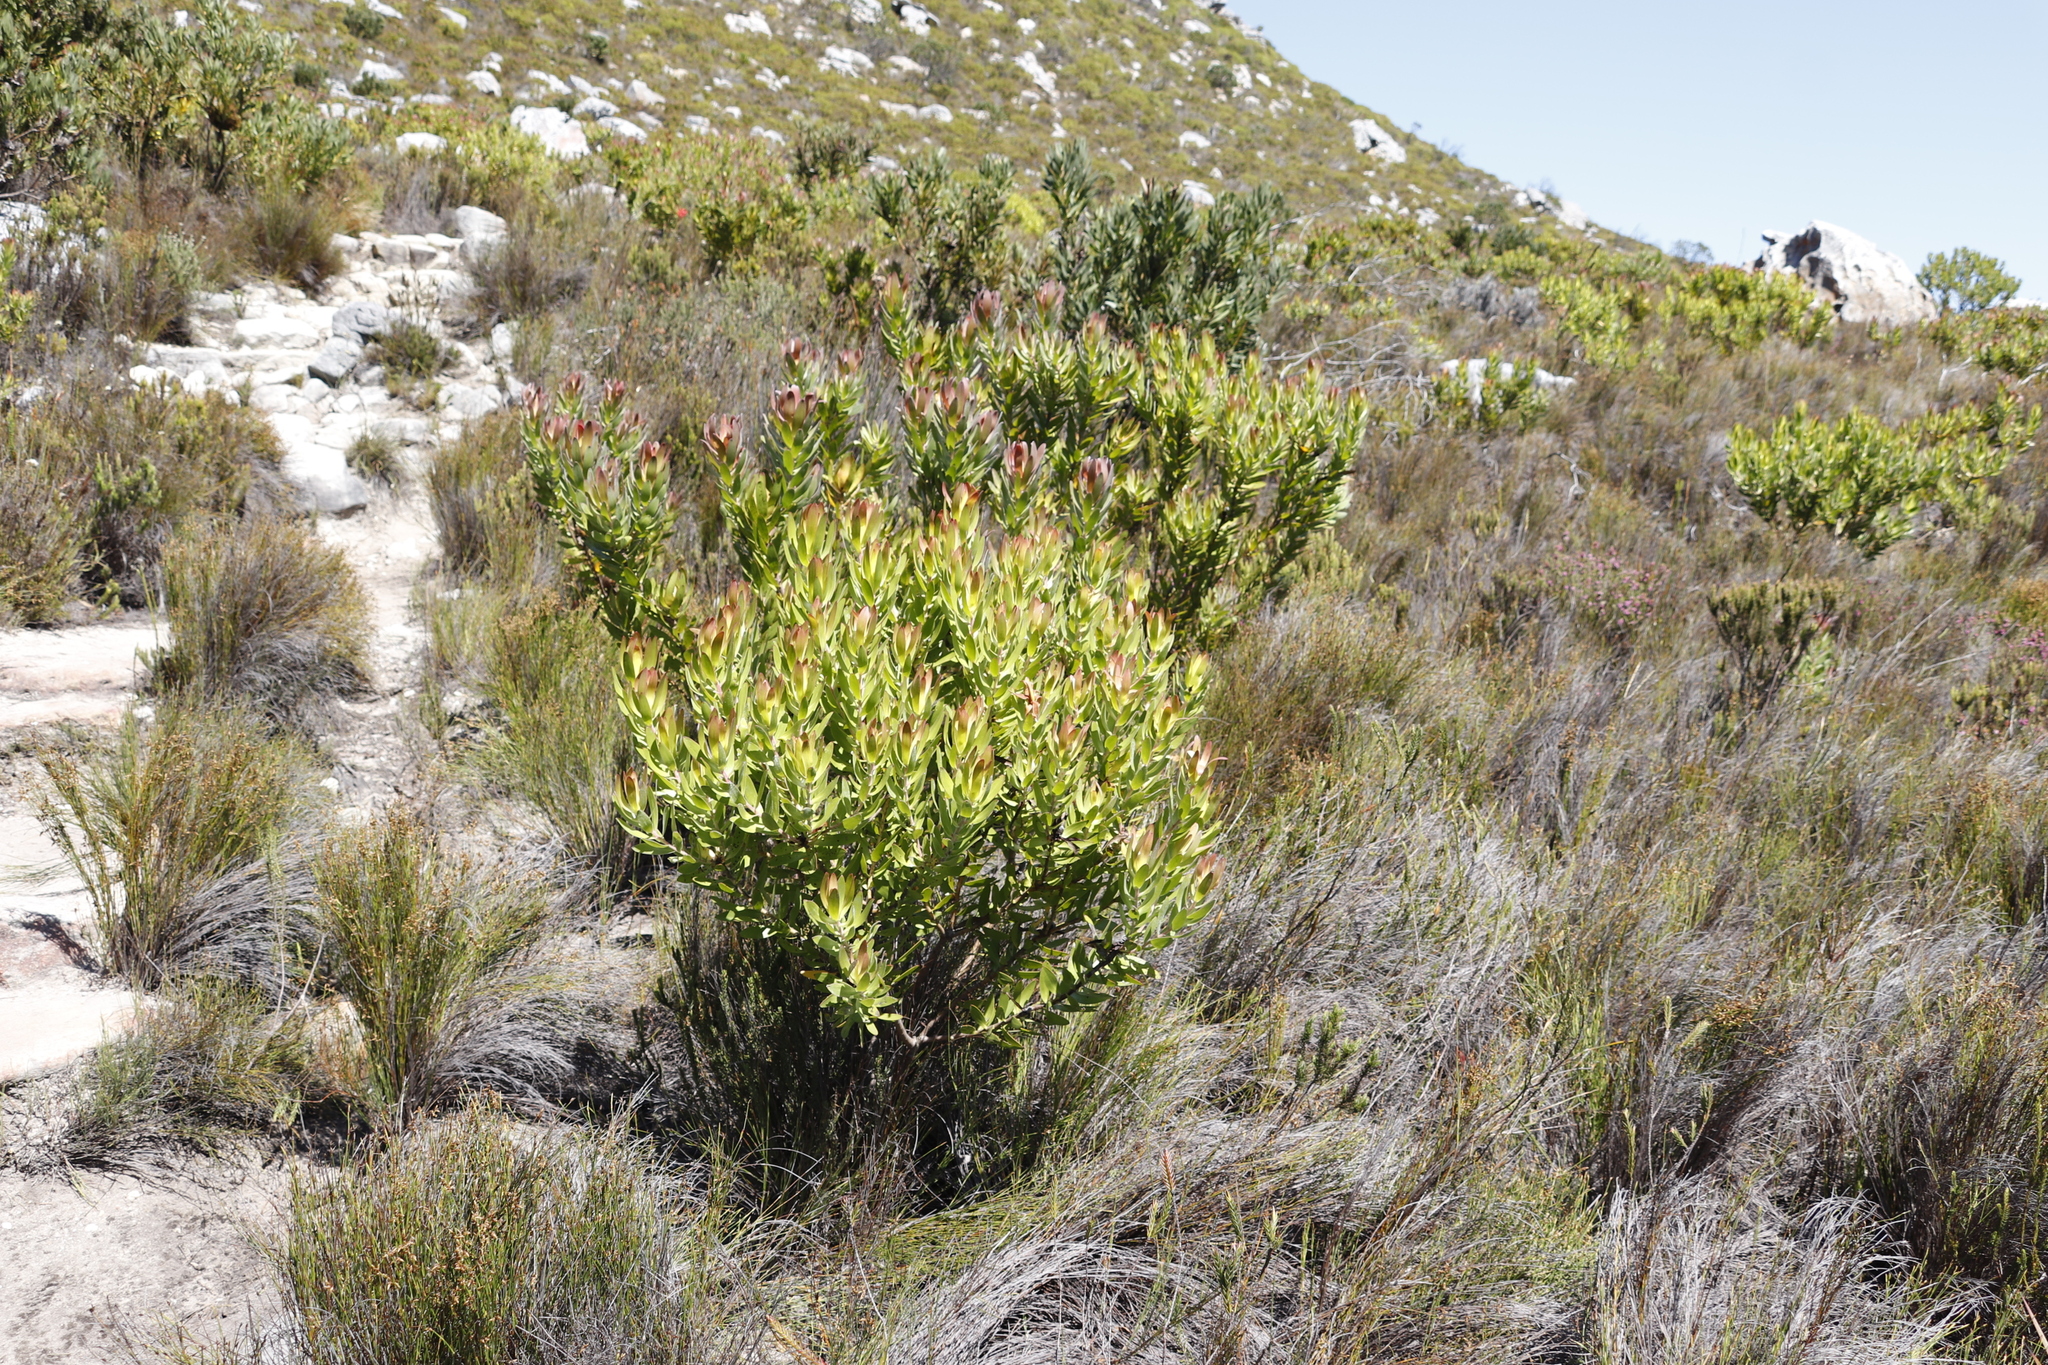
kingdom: Plantae
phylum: Tracheophyta
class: Magnoliopsida
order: Proteales
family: Proteaceae
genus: Leucadendron
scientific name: Leucadendron laureolum
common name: Golden sunshinebush
